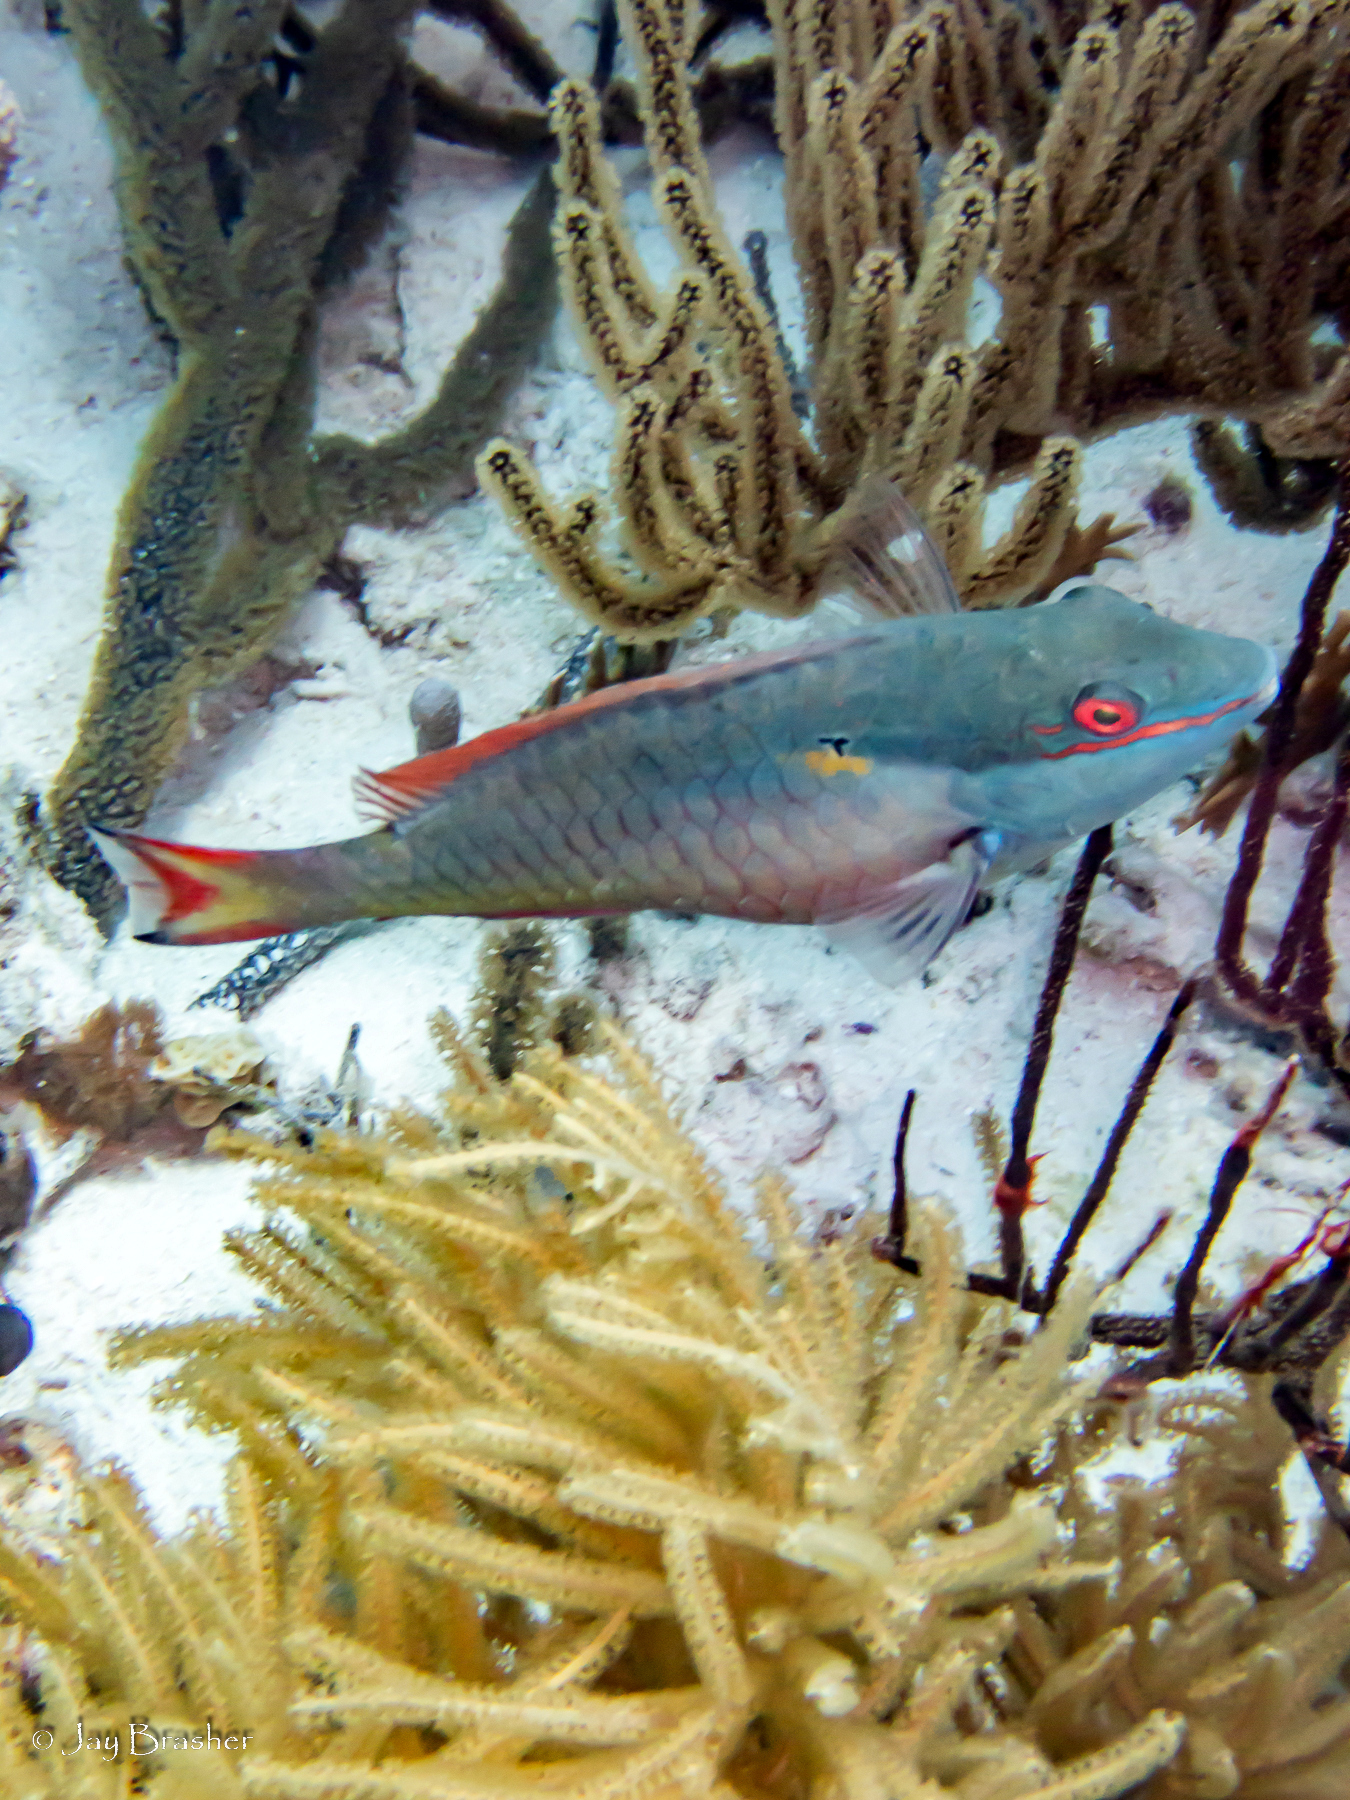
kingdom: Animalia
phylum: Chordata
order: Perciformes
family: Scaridae
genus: Sparisoma
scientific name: Sparisoma aurofrenatum
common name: Redband parrotfish
